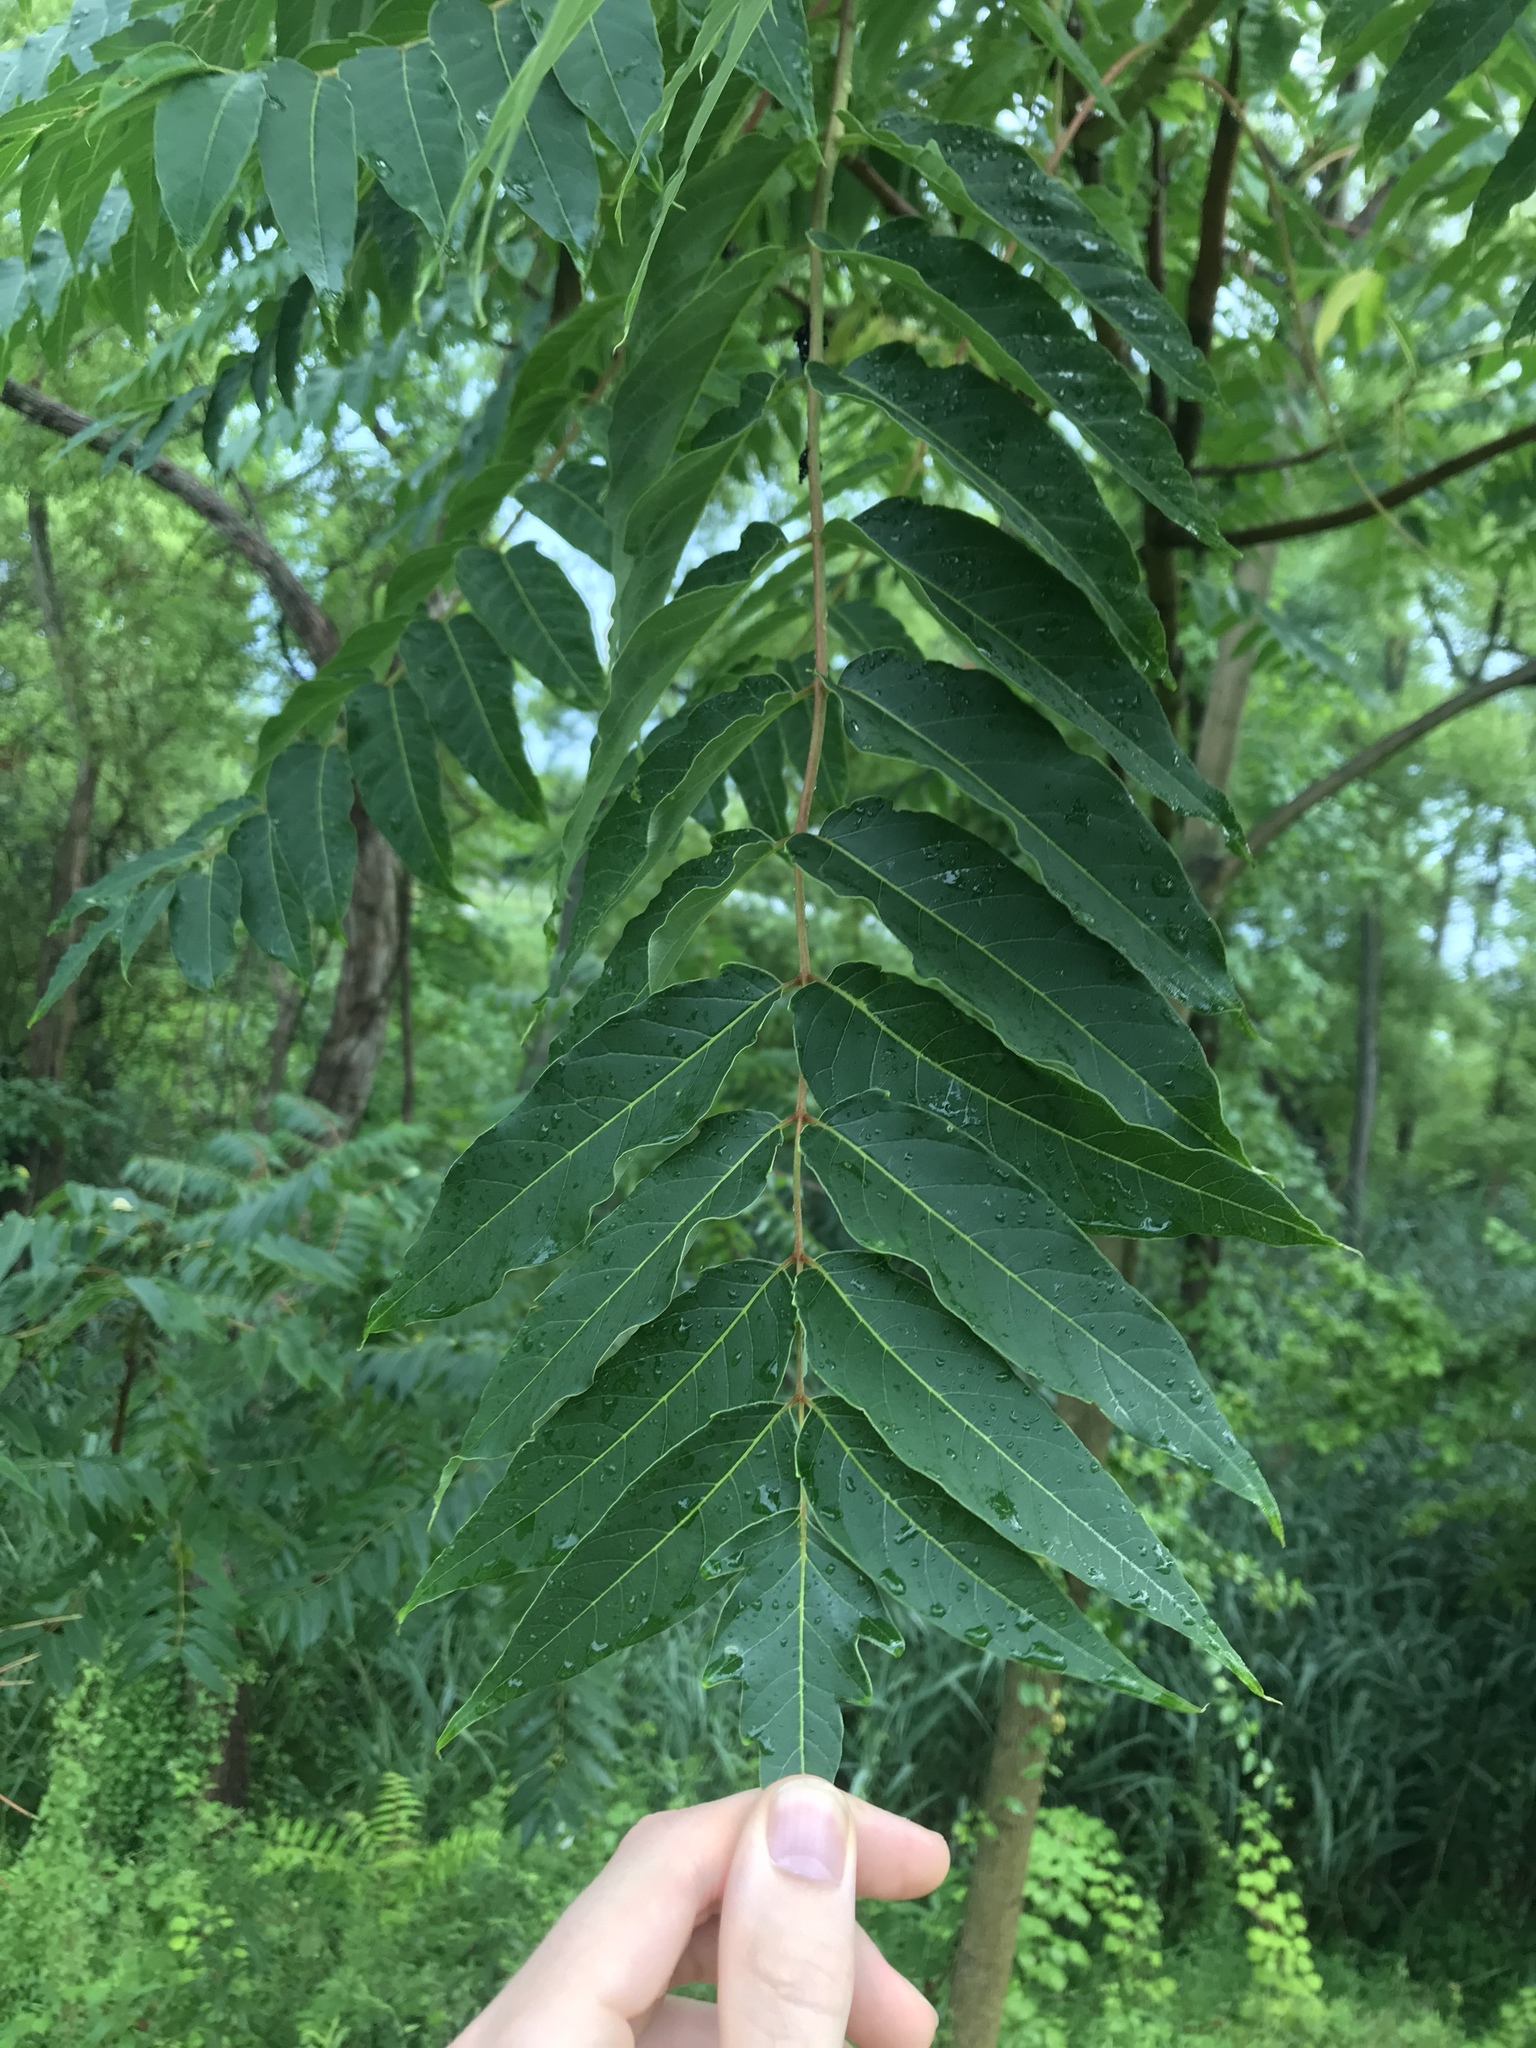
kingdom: Plantae
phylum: Tracheophyta
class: Magnoliopsida
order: Sapindales
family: Simaroubaceae
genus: Ailanthus
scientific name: Ailanthus altissima
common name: Tree-of-heaven
